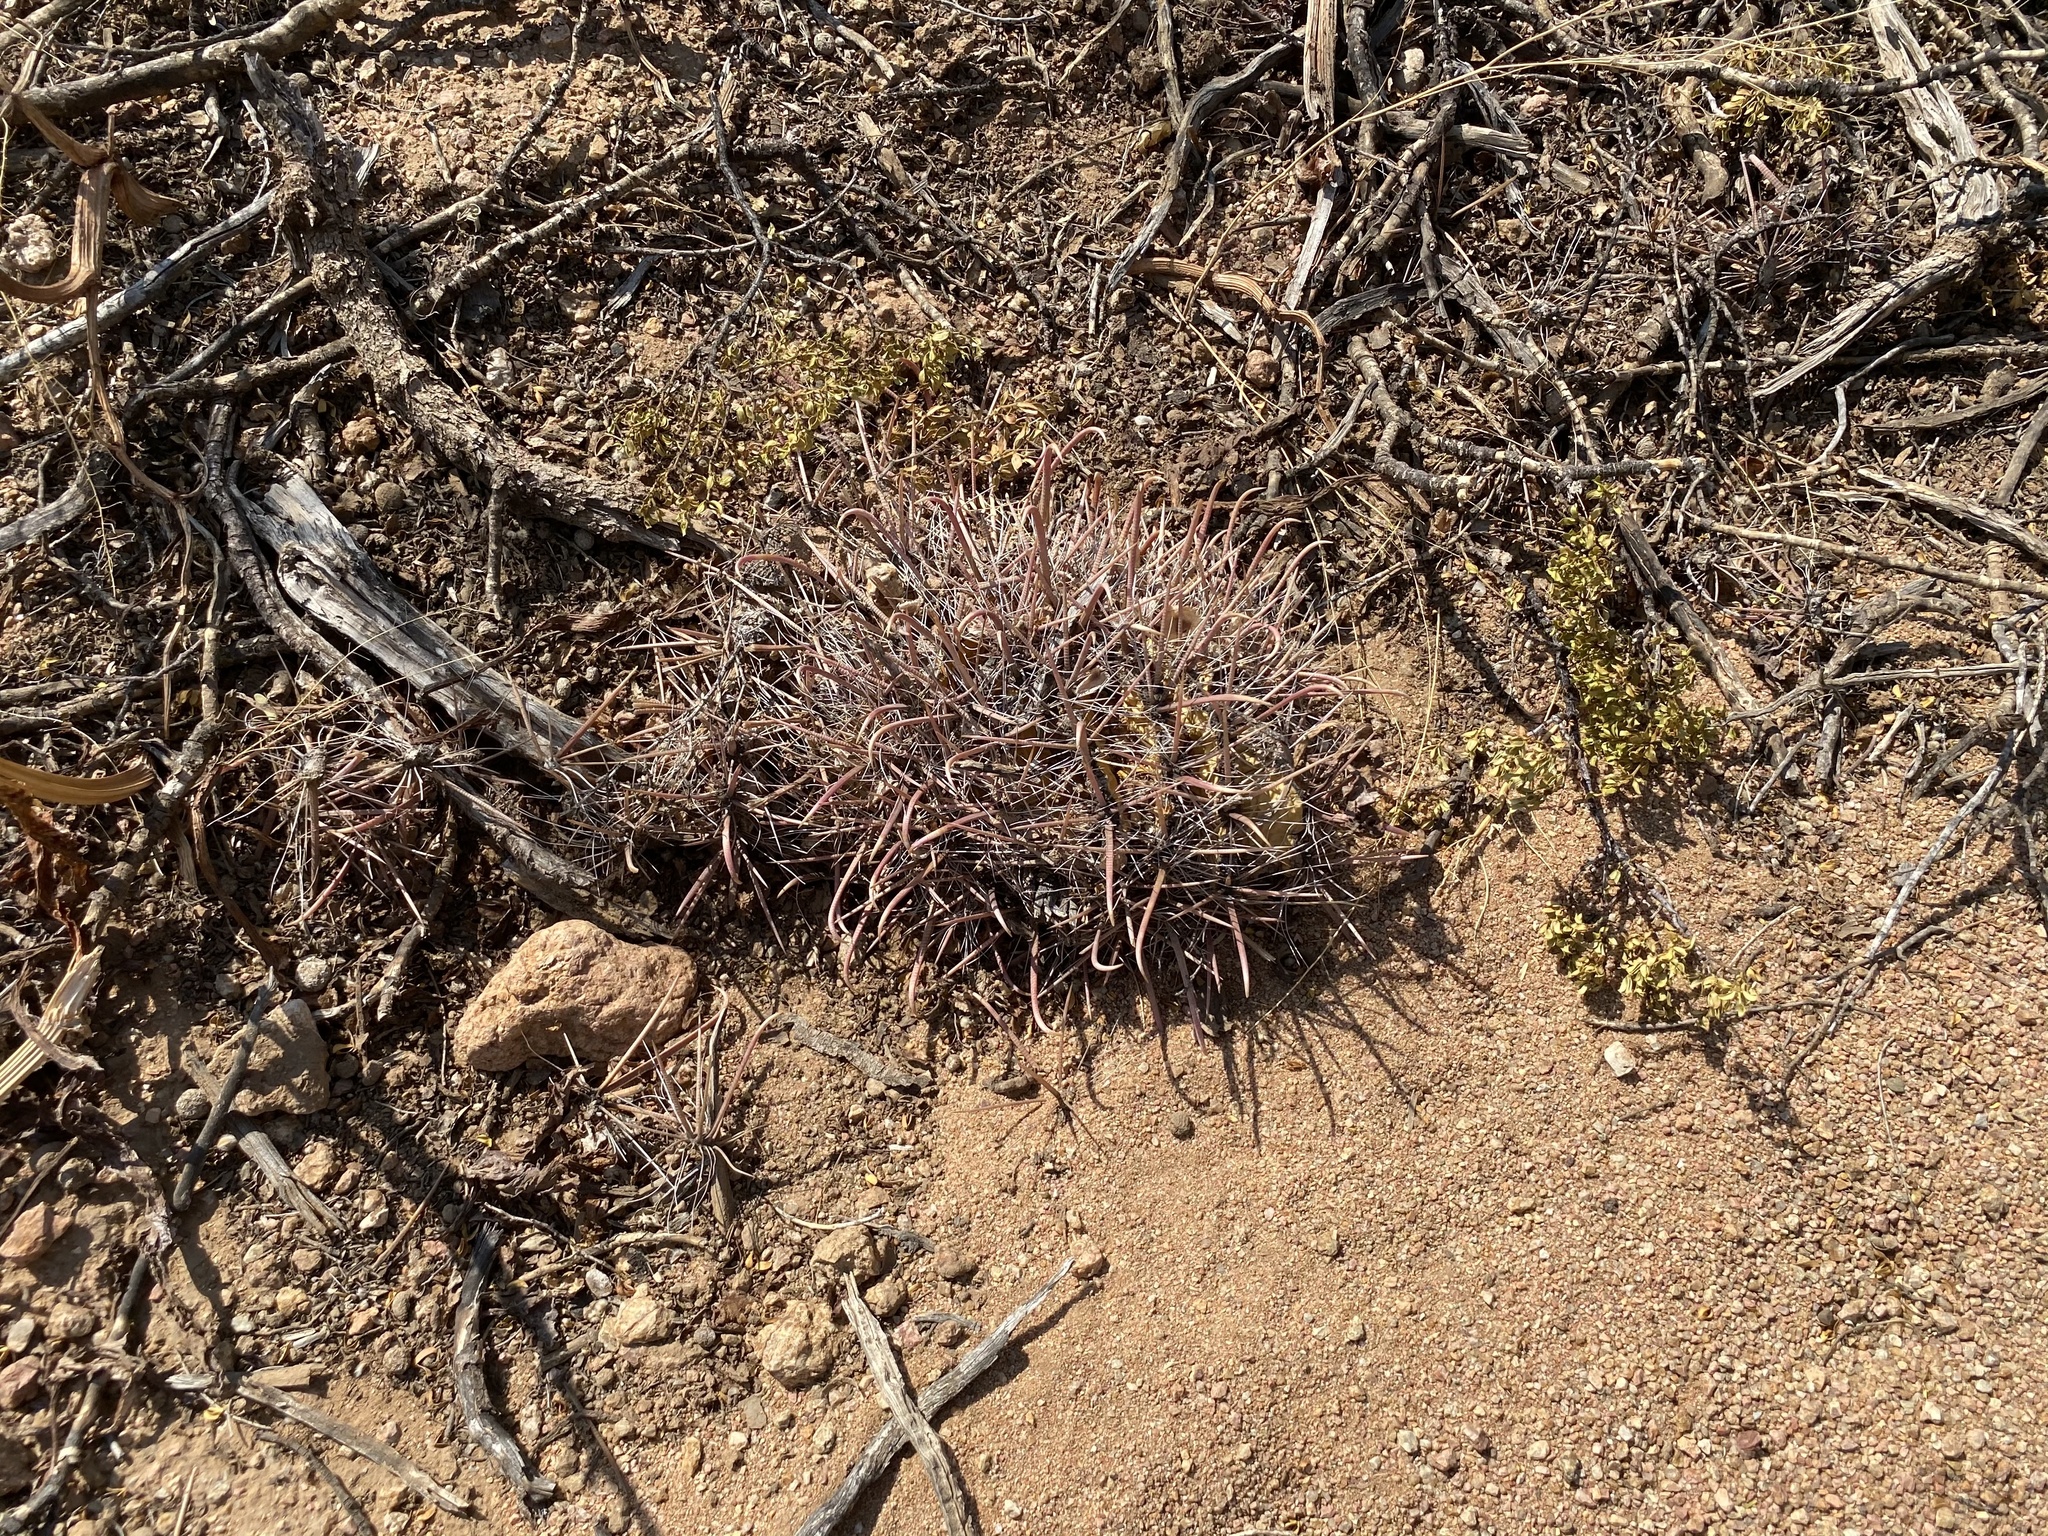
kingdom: Plantae
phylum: Tracheophyta
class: Magnoliopsida
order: Caryophyllales
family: Cactaceae
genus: Ferocactus
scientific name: Ferocactus wislizeni
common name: Candy barrel cactus
